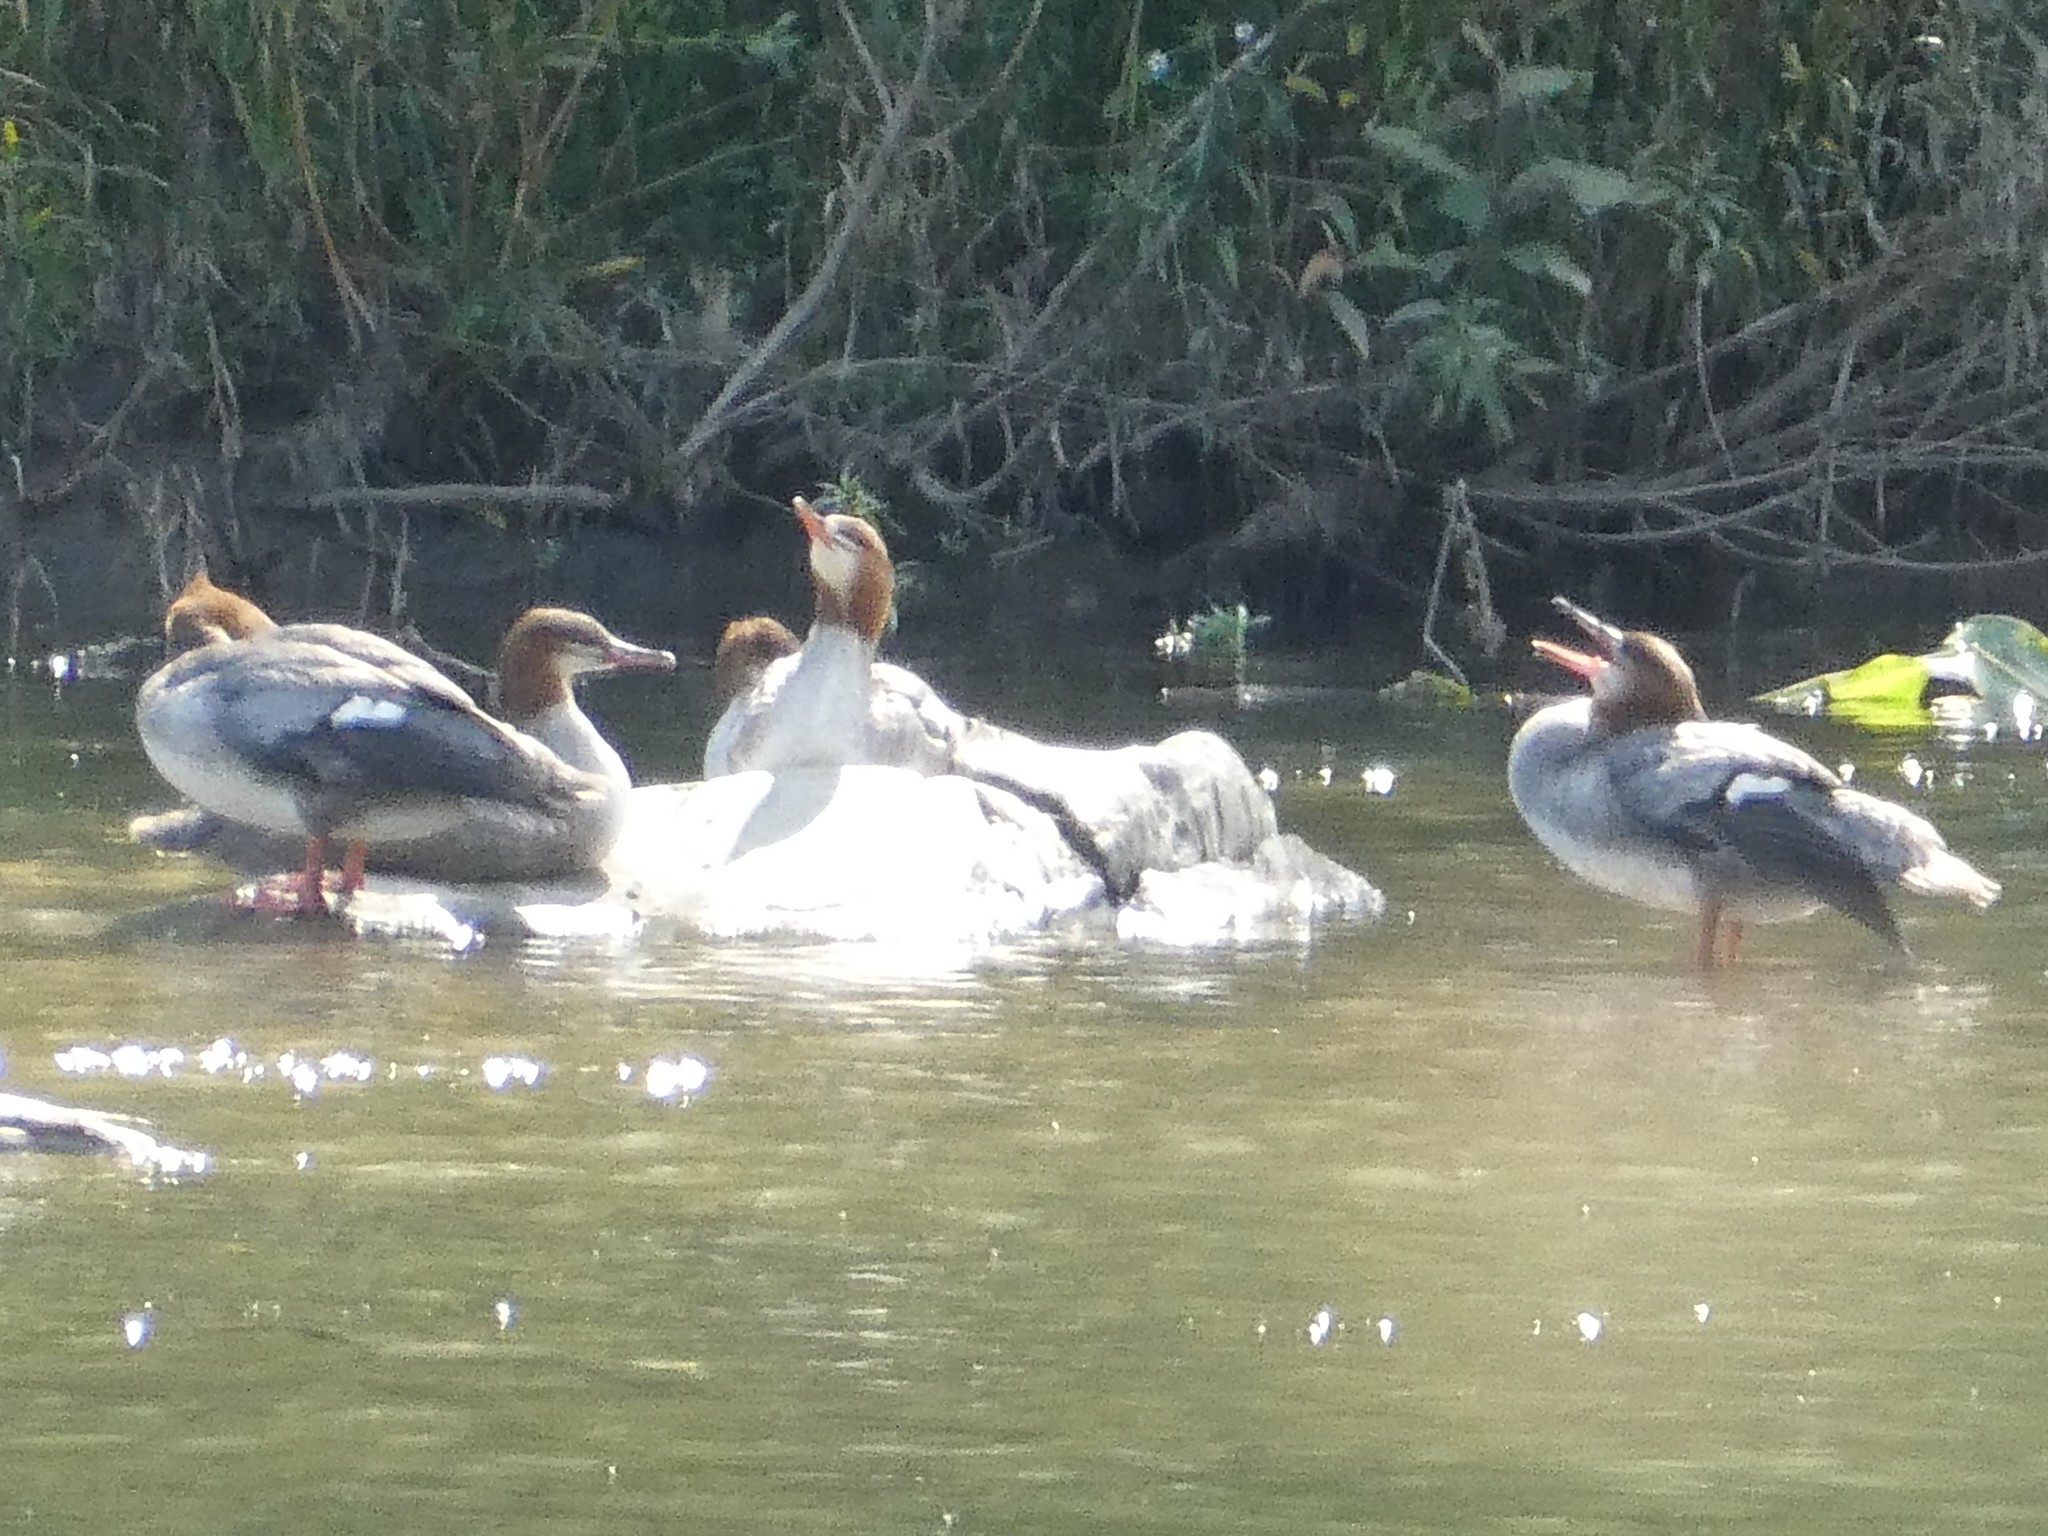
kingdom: Animalia
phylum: Chordata
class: Aves
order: Anseriformes
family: Anatidae
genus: Mergus
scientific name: Mergus merganser
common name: Common merganser
